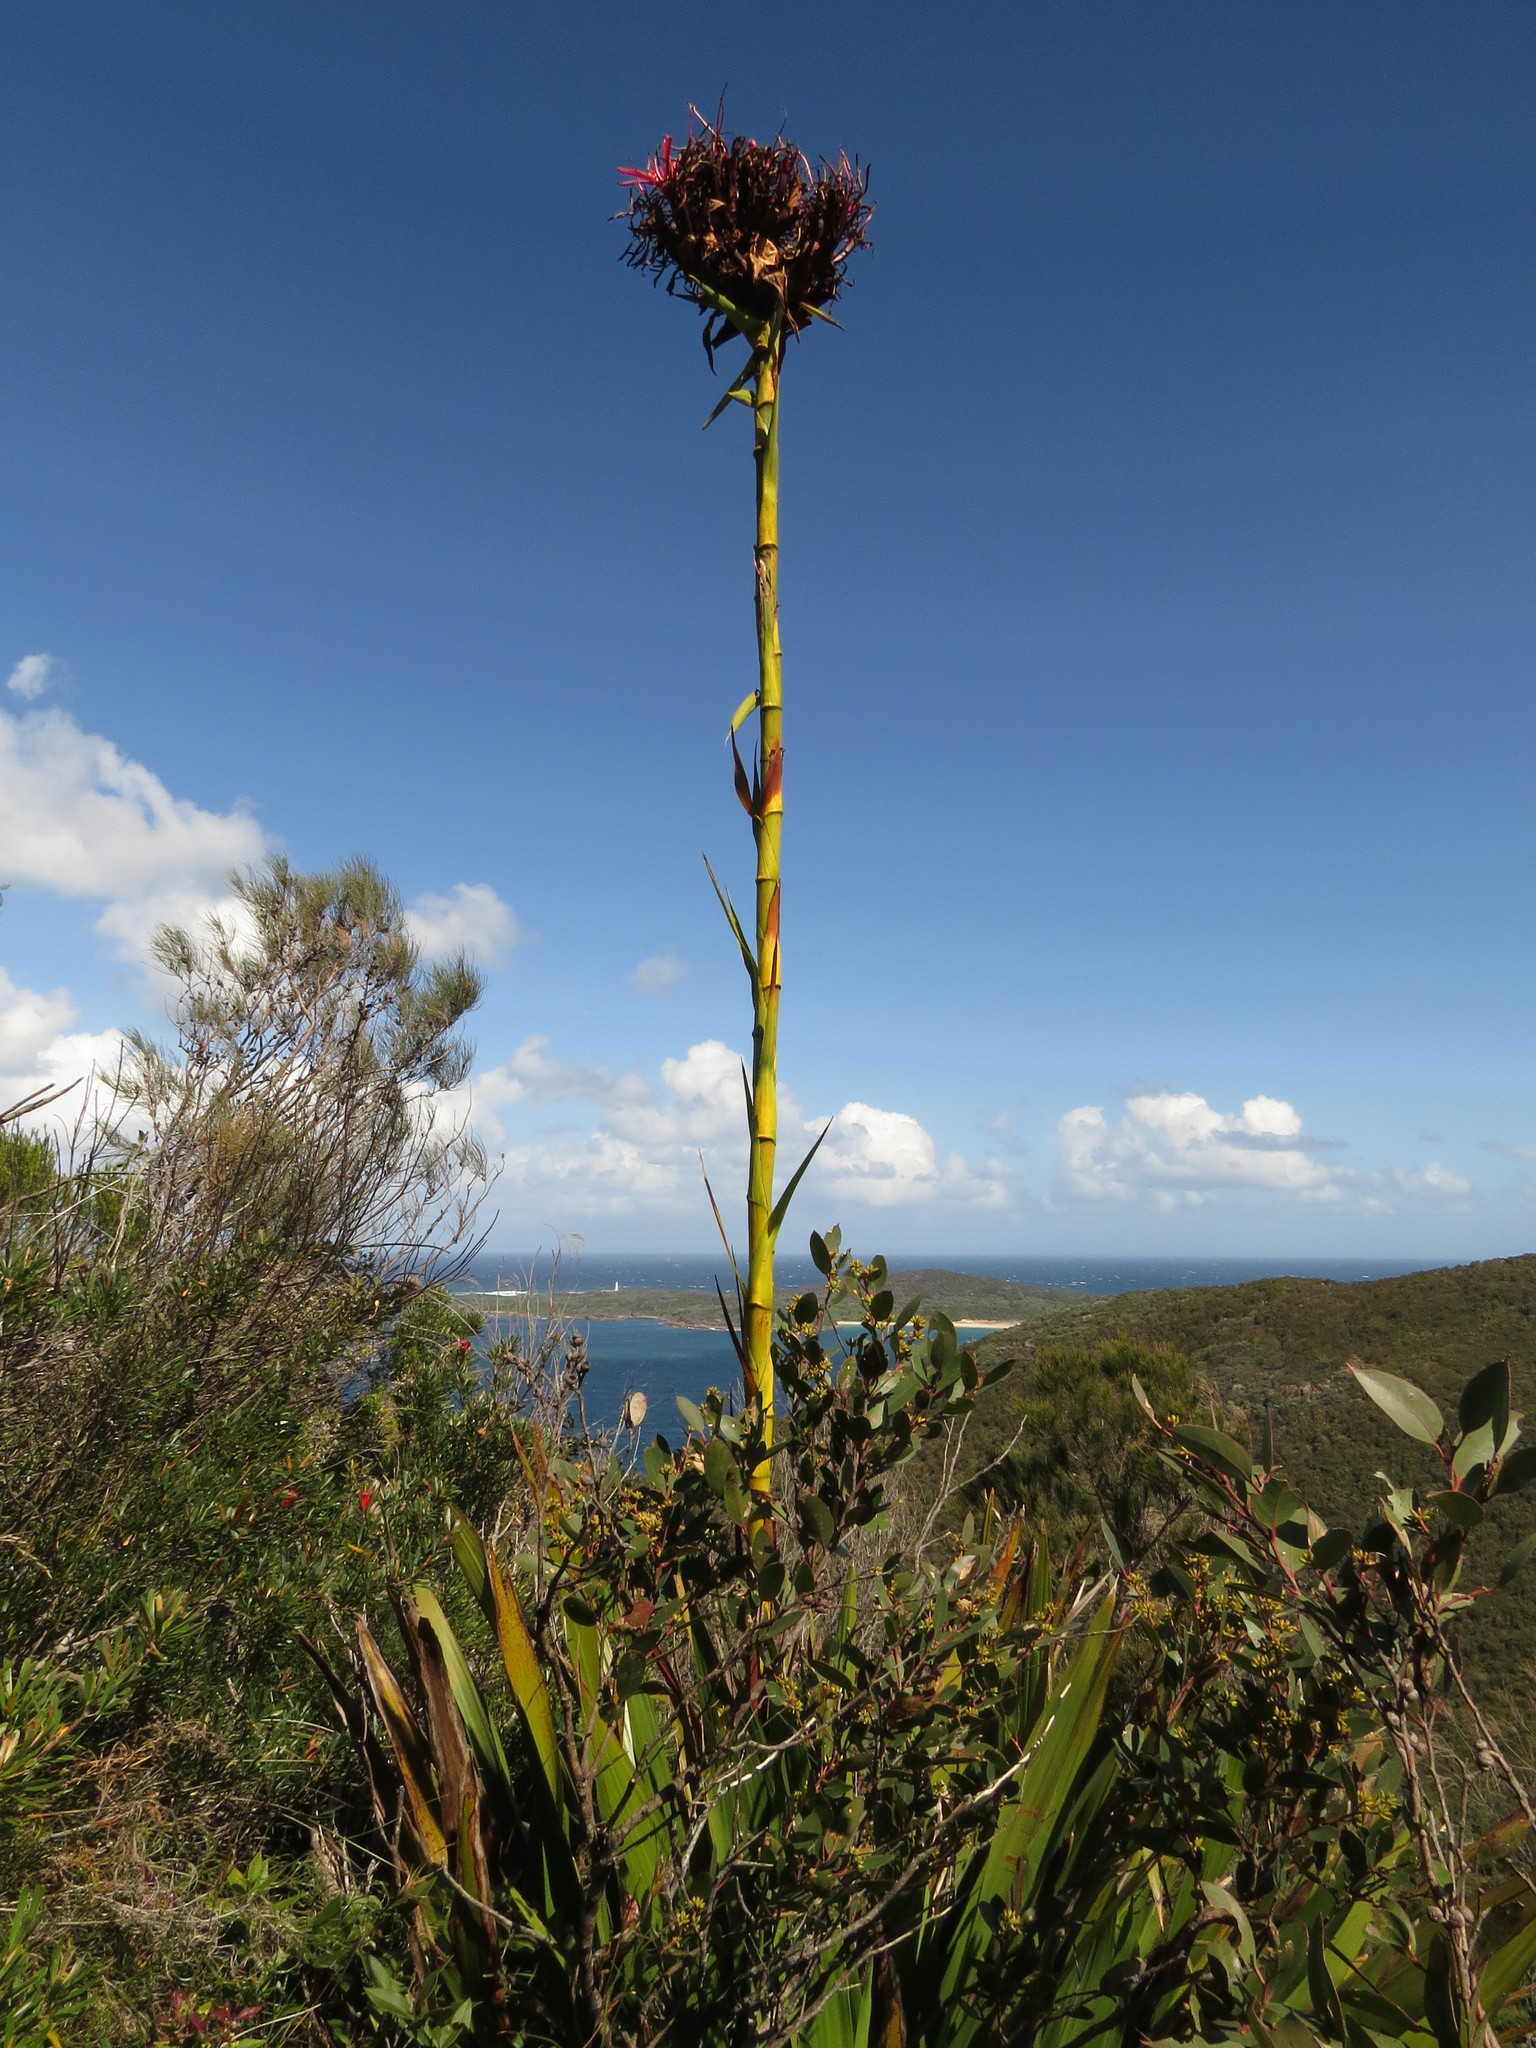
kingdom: Plantae
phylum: Tracheophyta
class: Liliopsida
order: Asparagales
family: Doryanthaceae
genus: Doryanthes
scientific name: Doryanthes excelsa
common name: Giant-lily
